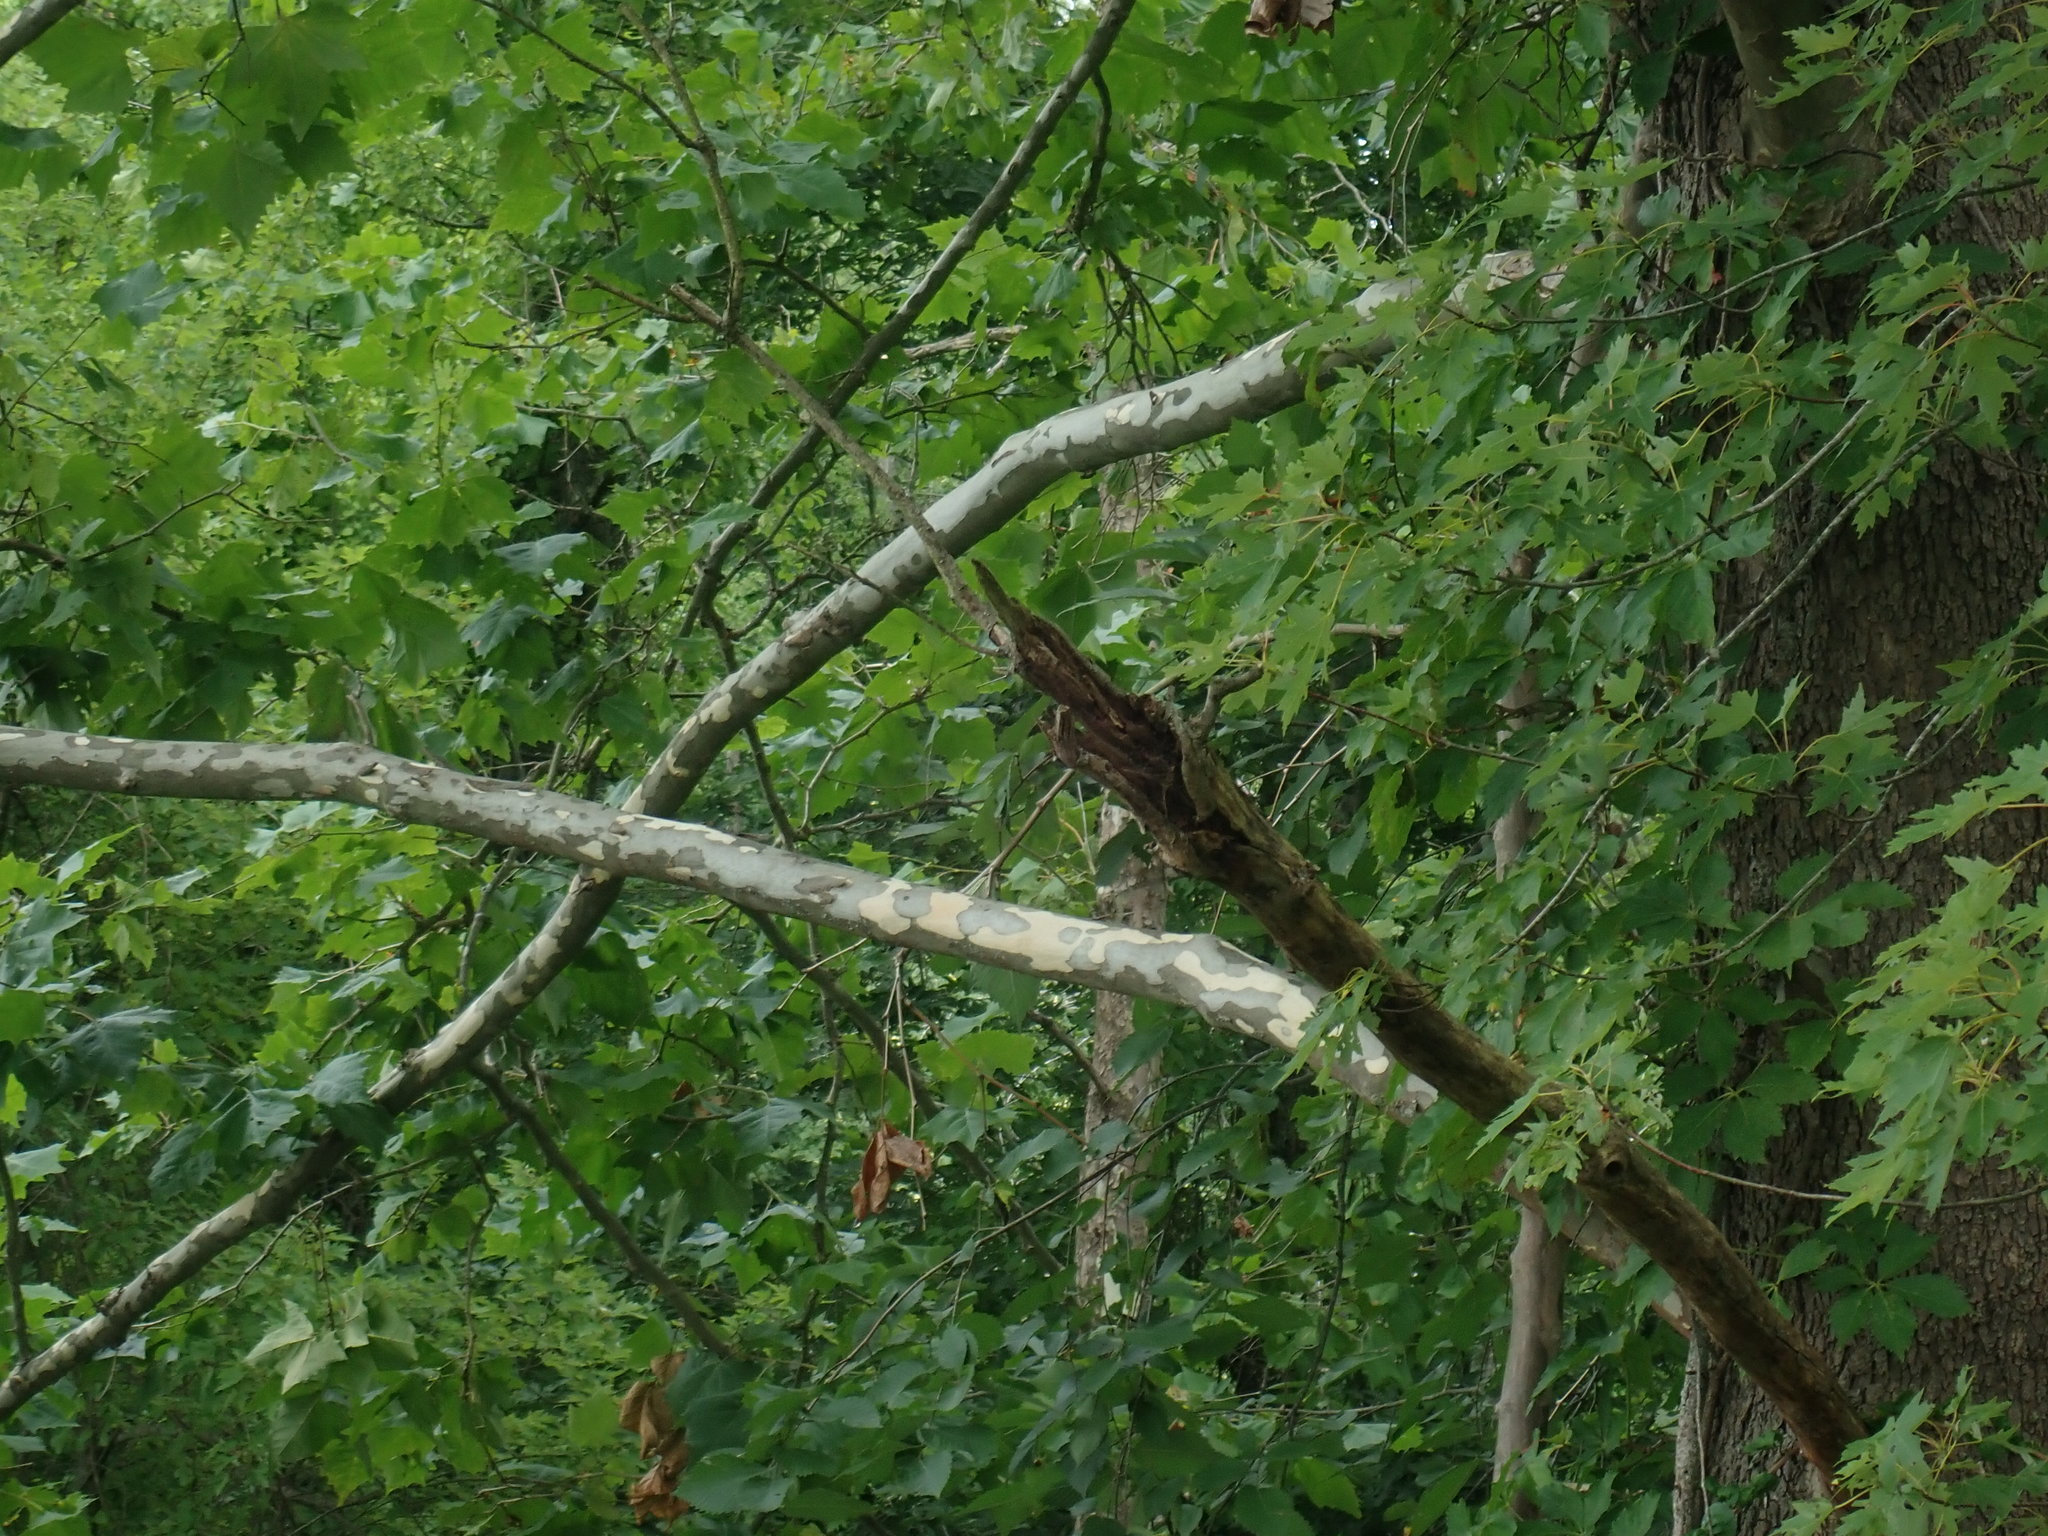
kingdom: Plantae
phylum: Tracheophyta
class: Magnoliopsida
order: Proteales
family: Platanaceae
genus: Platanus
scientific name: Platanus occidentalis
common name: American sycamore
